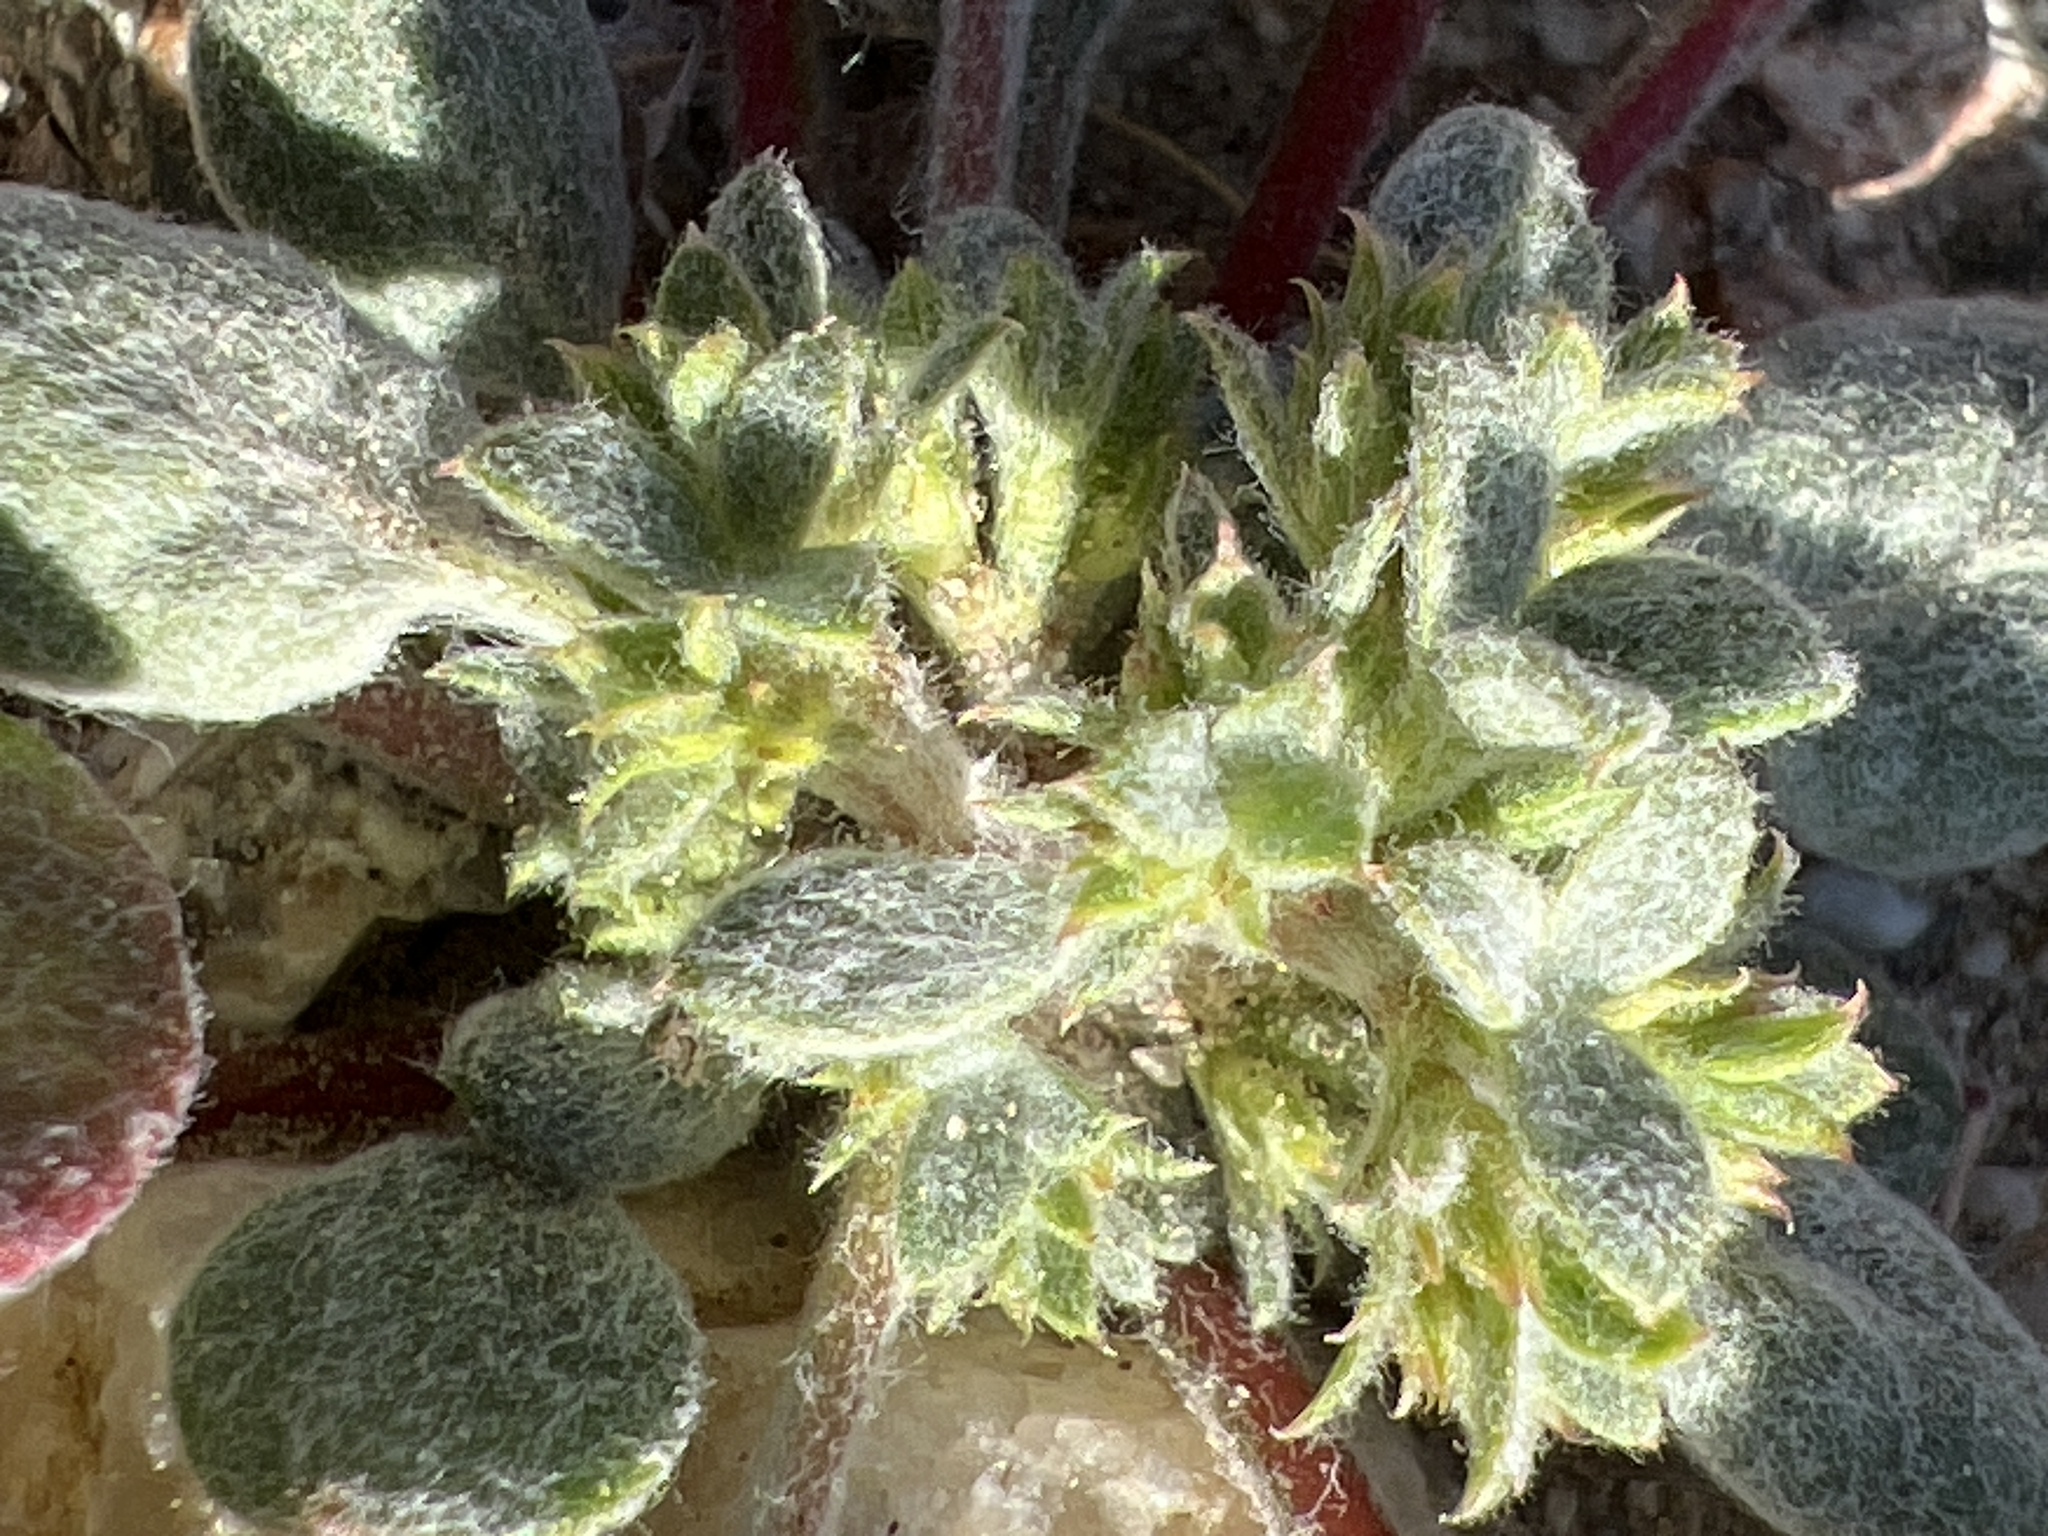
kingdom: Plantae
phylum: Tracheophyta
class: Magnoliopsida
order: Caryophyllales
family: Polygonaceae
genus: Chorizanthe
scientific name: Chorizanthe corrugata
